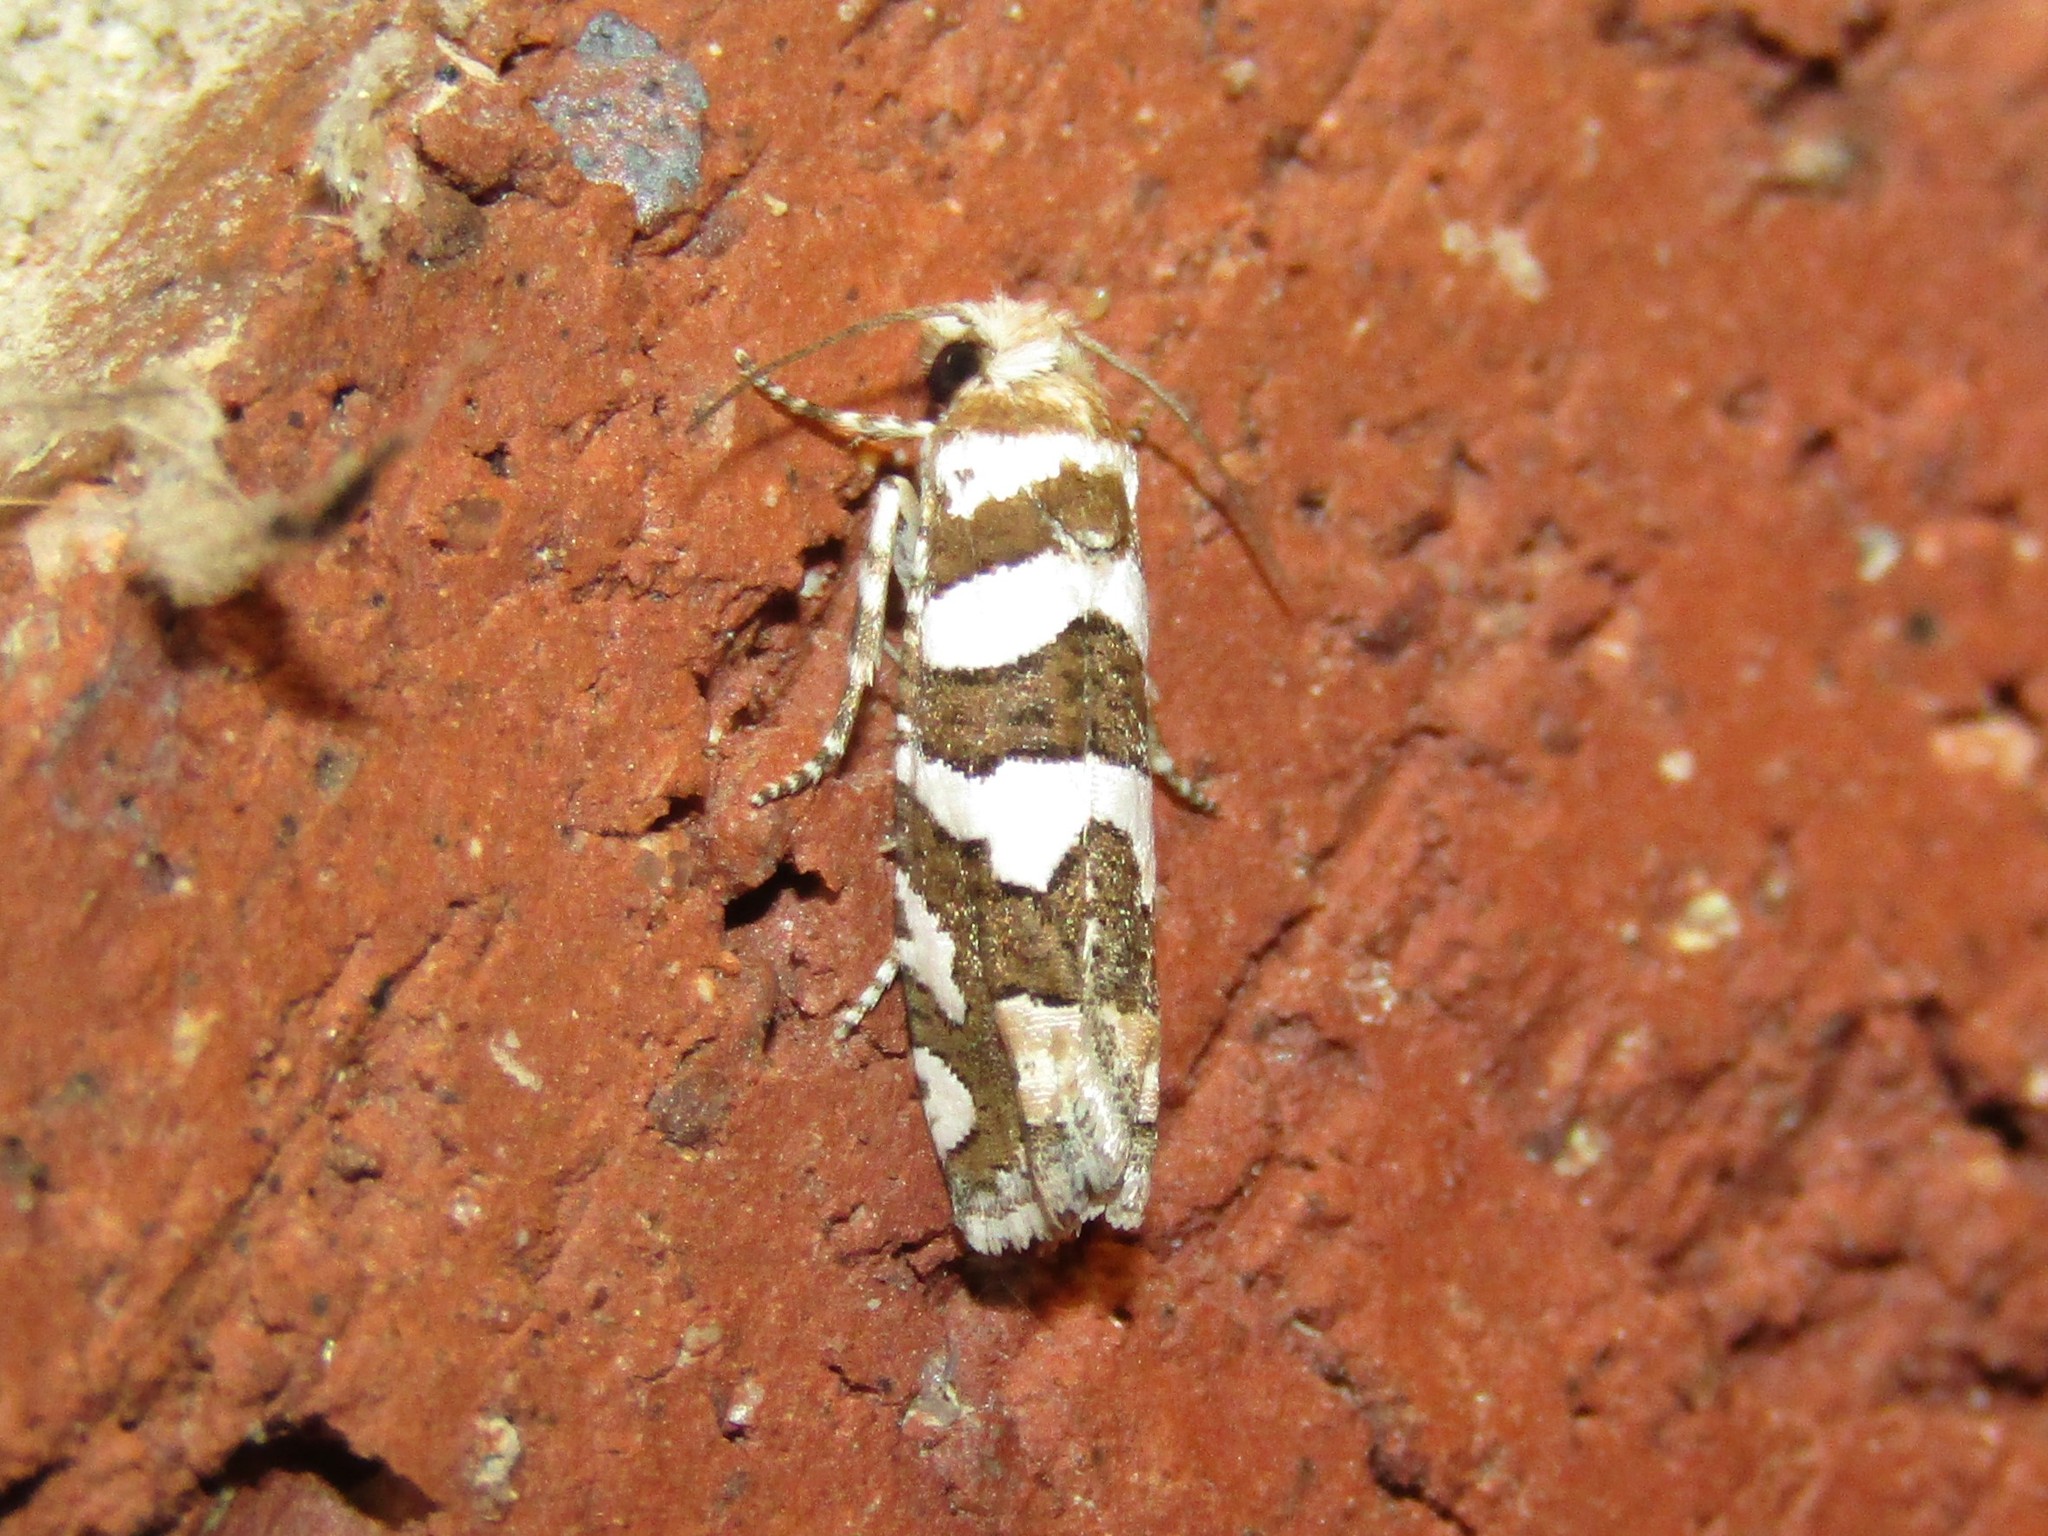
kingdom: Animalia
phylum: Arthropoda
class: Insecta
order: Lepidoptera
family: Tortricidae
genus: Pelochrista
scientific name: Pelochrista robinsonana
